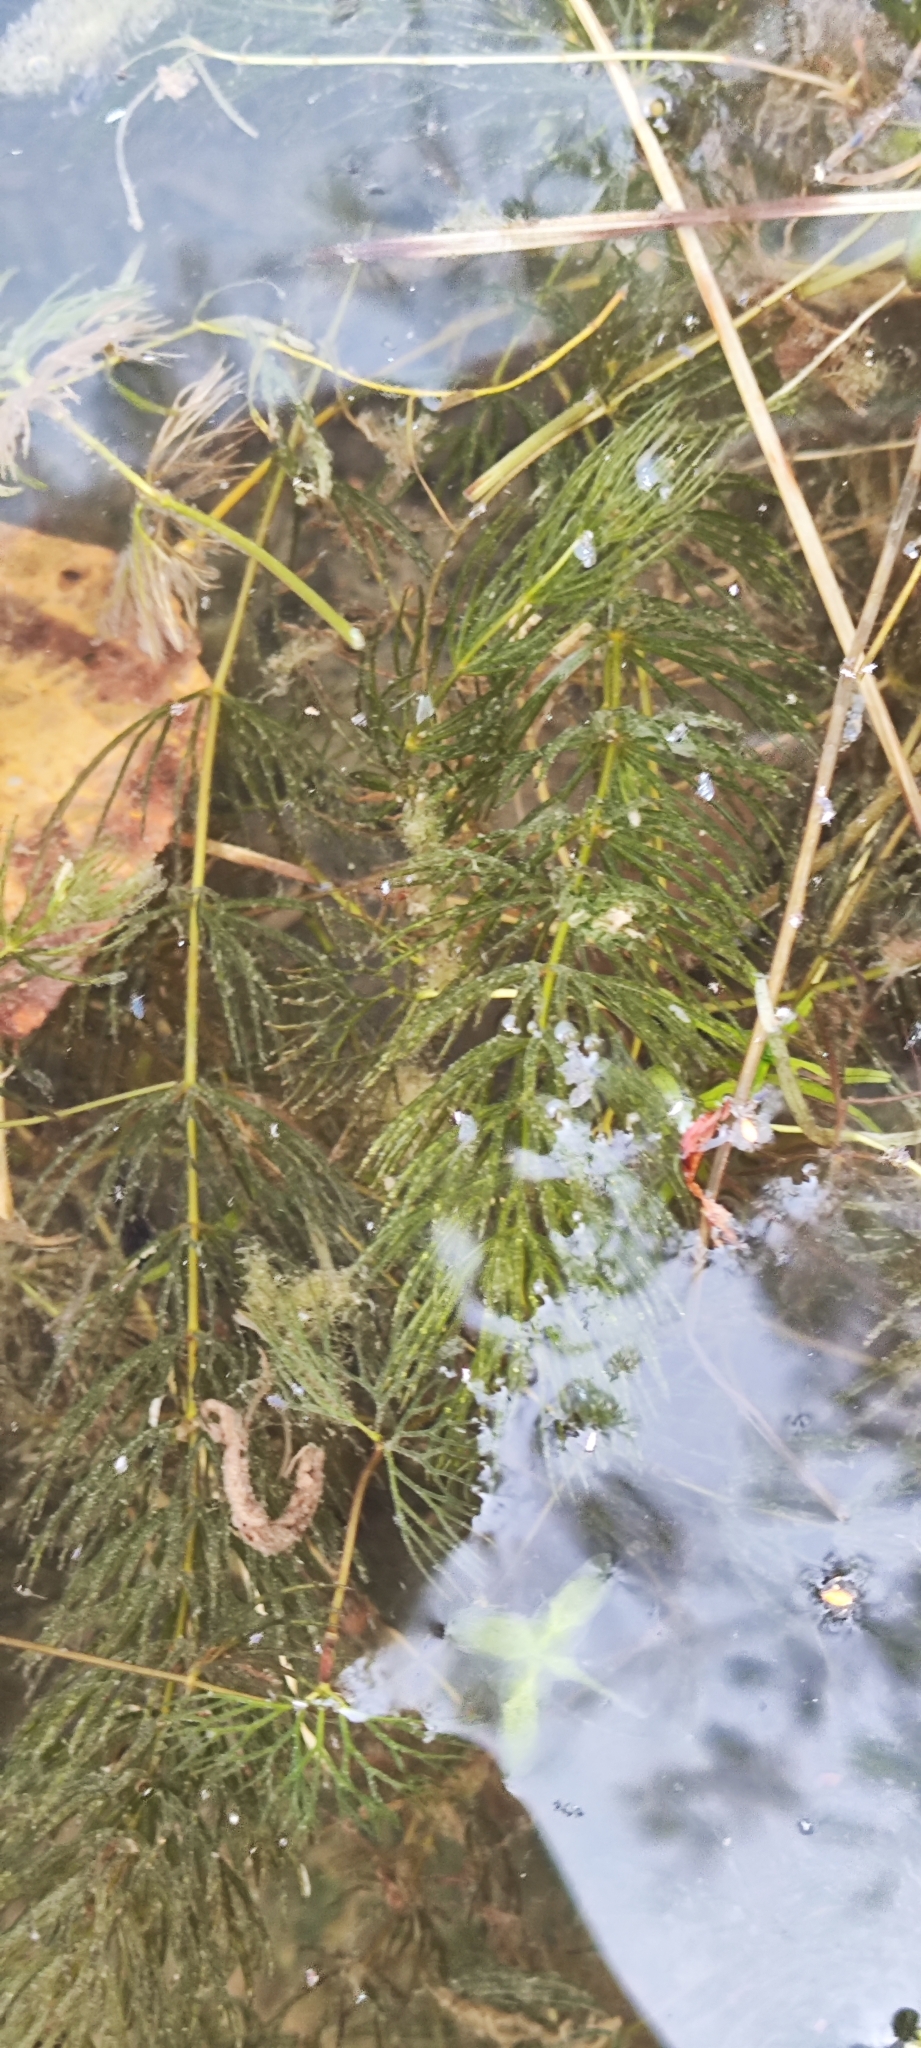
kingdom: Plantae
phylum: Tracheophyta
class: Magnoliopsida
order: Ceratophyllales
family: Ceratophyllaceae
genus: Ceratophyllum
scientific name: Ceratophyllum demersum
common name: Rigid hornwort
